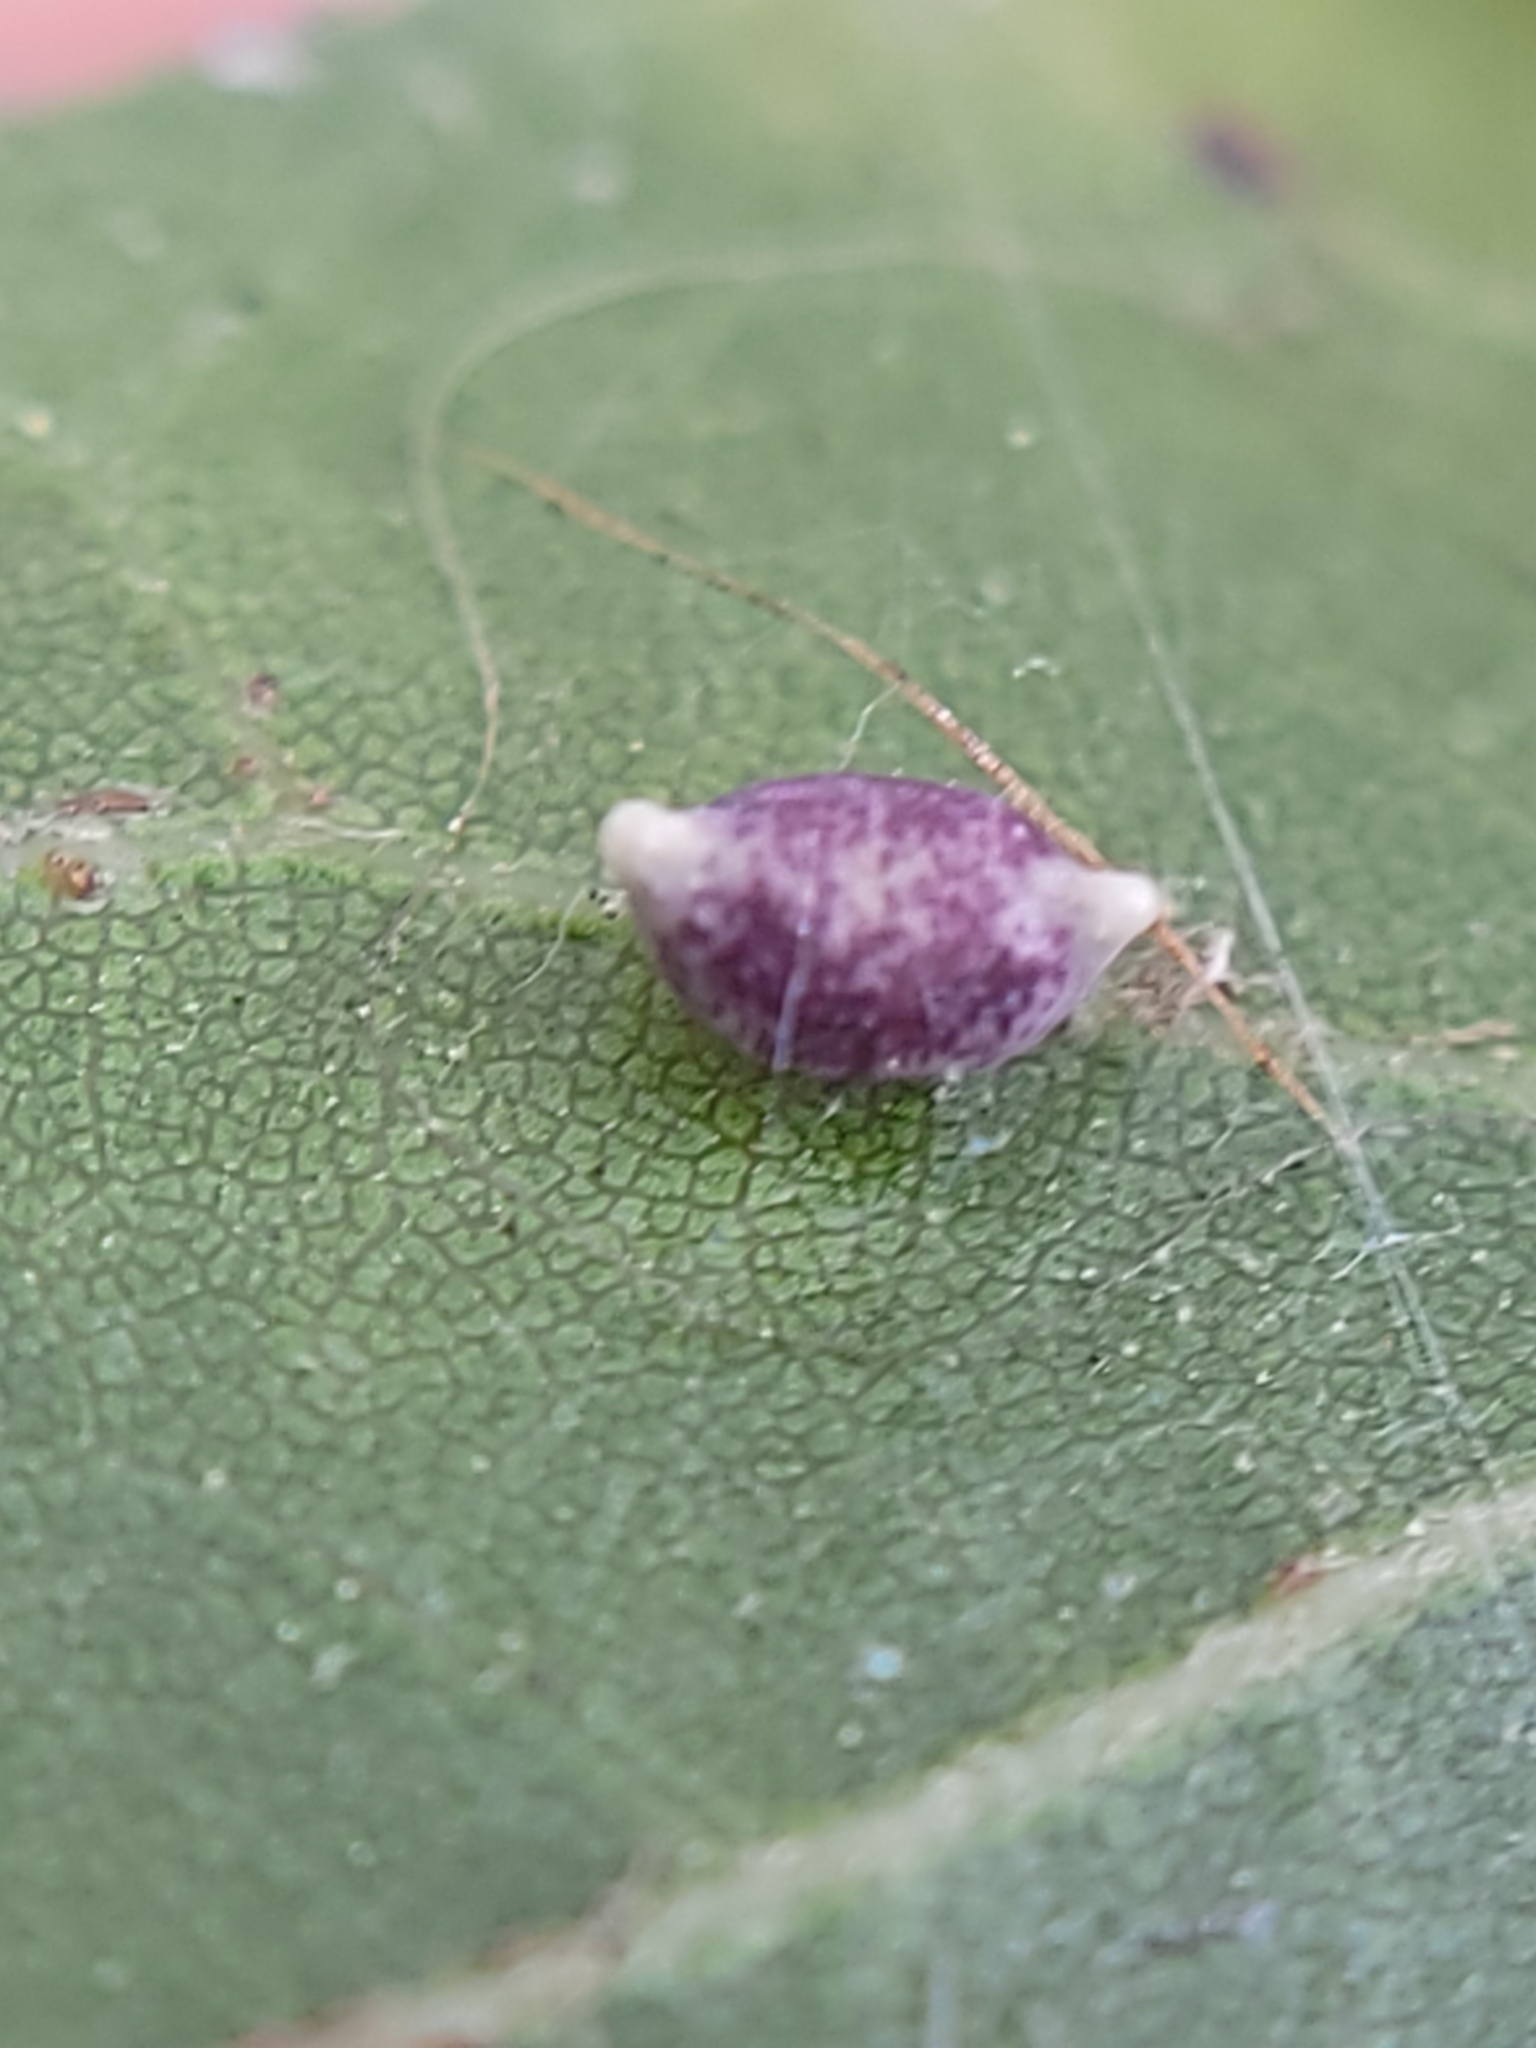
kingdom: Animalia
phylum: Arthropoda
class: Insecta
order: Hymenoptera
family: Cynipidae
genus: Dryocosmus
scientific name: Dryocosmus
